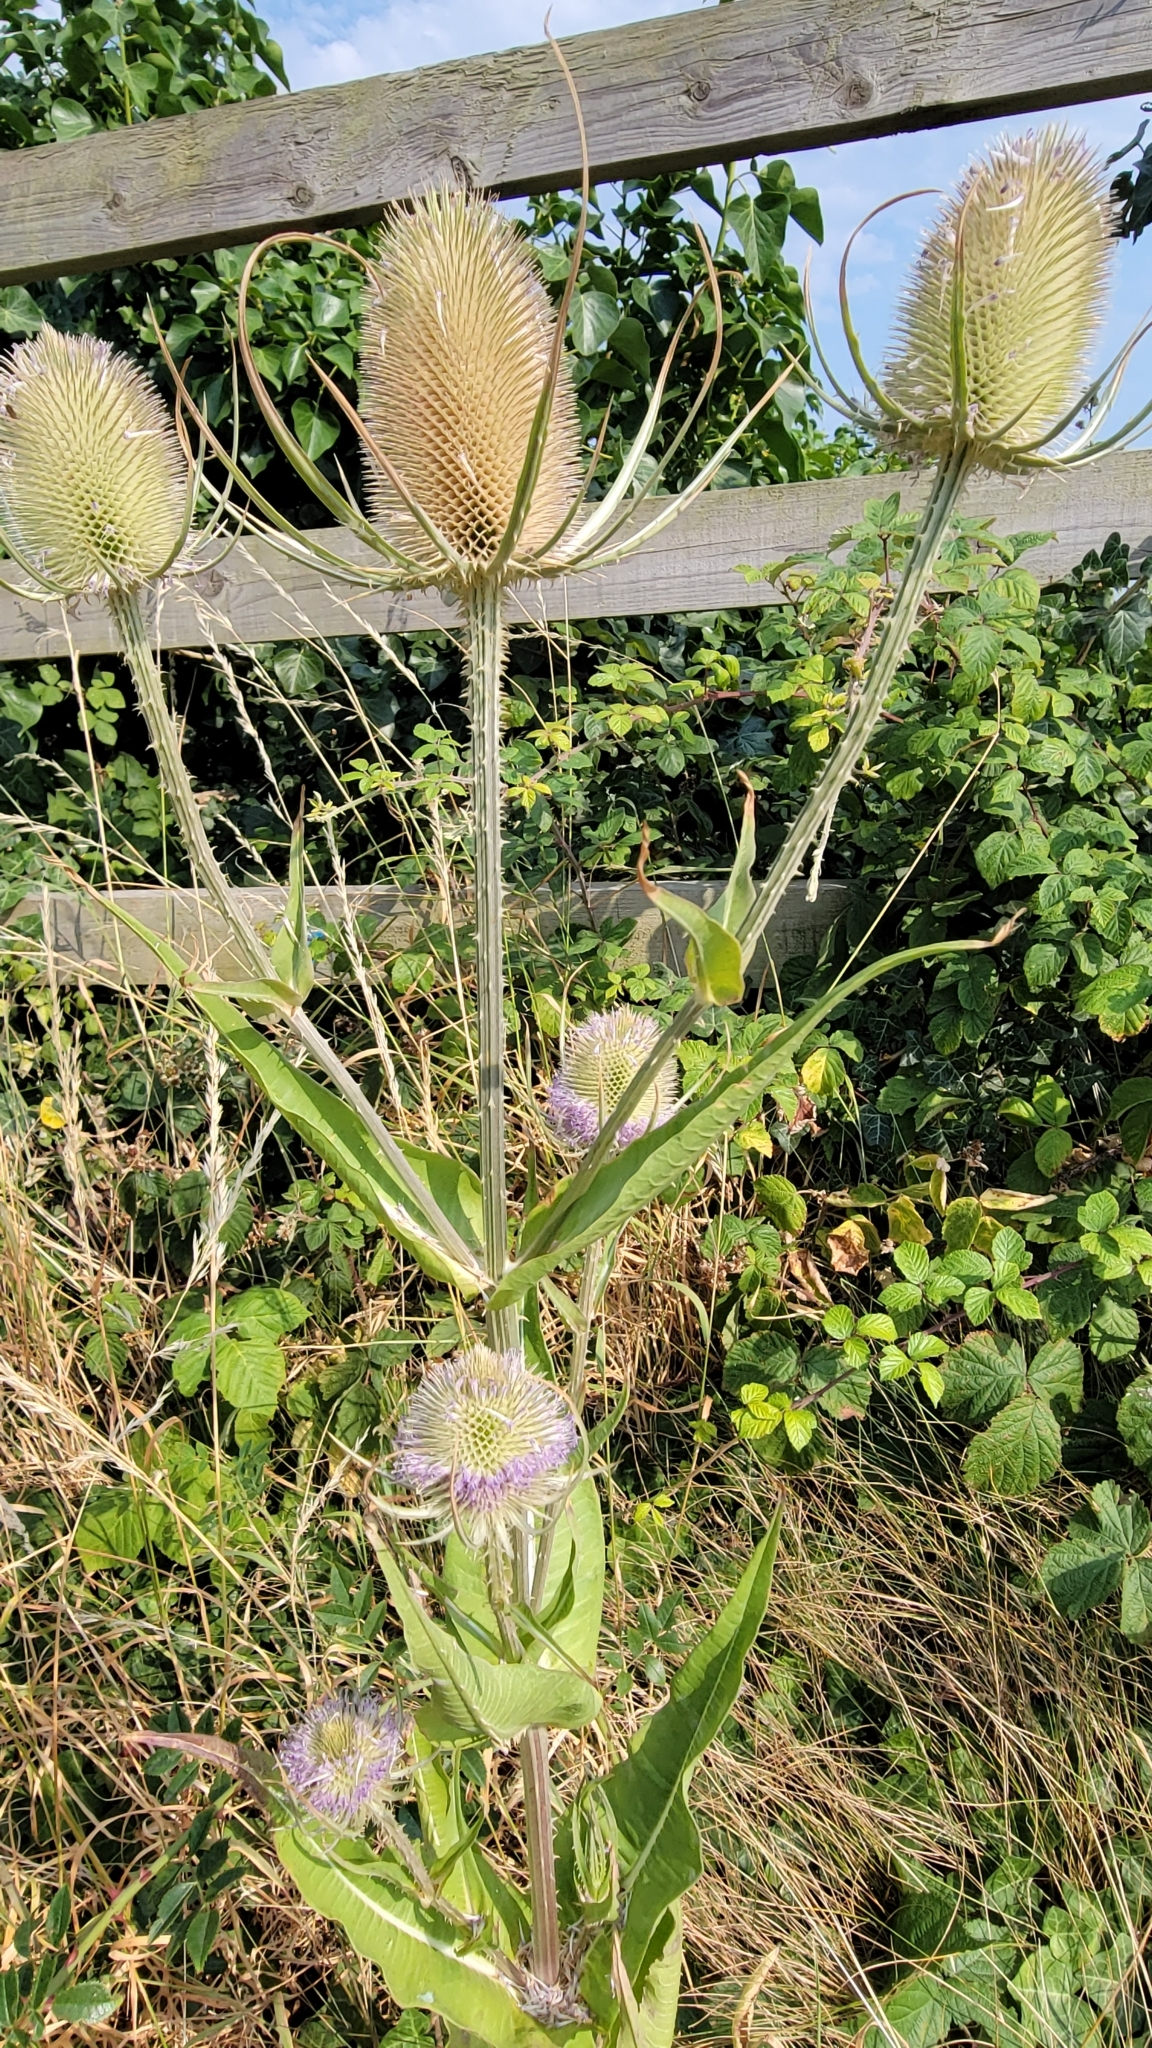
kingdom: Plantae
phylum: Tracheophyta
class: Magnoliopsida
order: Dipsacales
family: Caprifoliaceae
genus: Dipsacus
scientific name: Dipsacus fullonum
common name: Teasel
